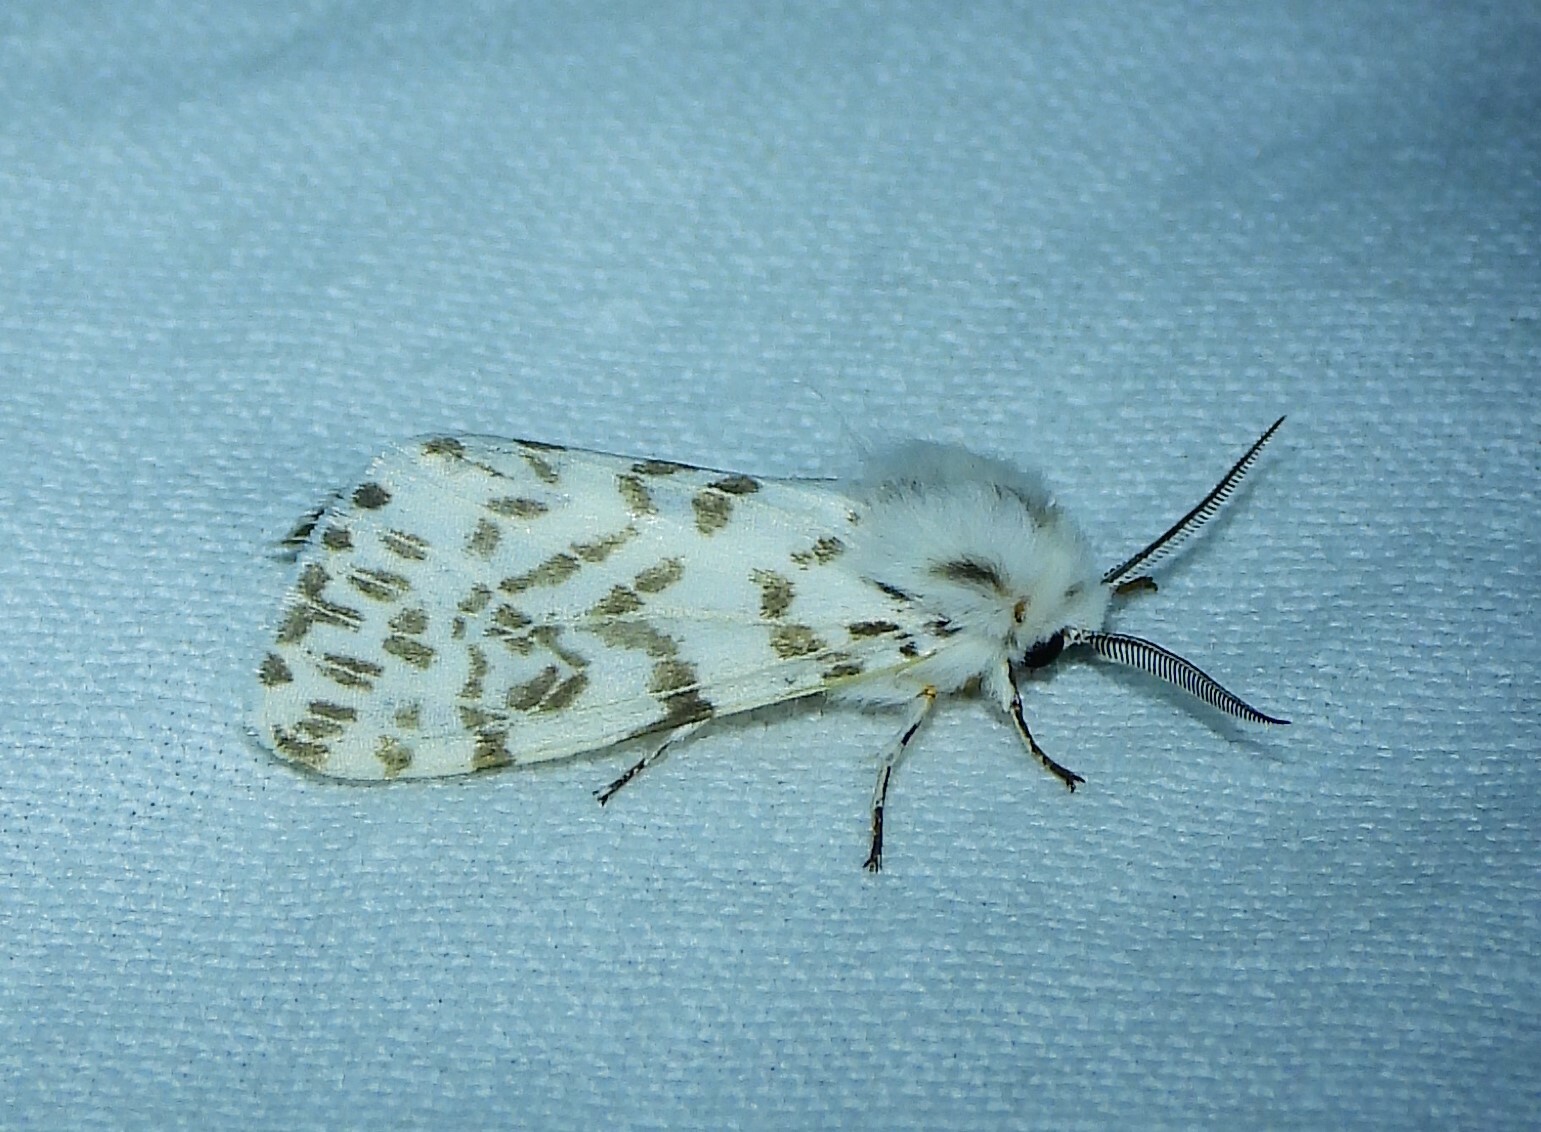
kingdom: Animalia
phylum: Arthropoda
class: Insecta
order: Lepidoptera
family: Erebidae
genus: Hyphantria
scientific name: Hyphantria cunea
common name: American white moth
